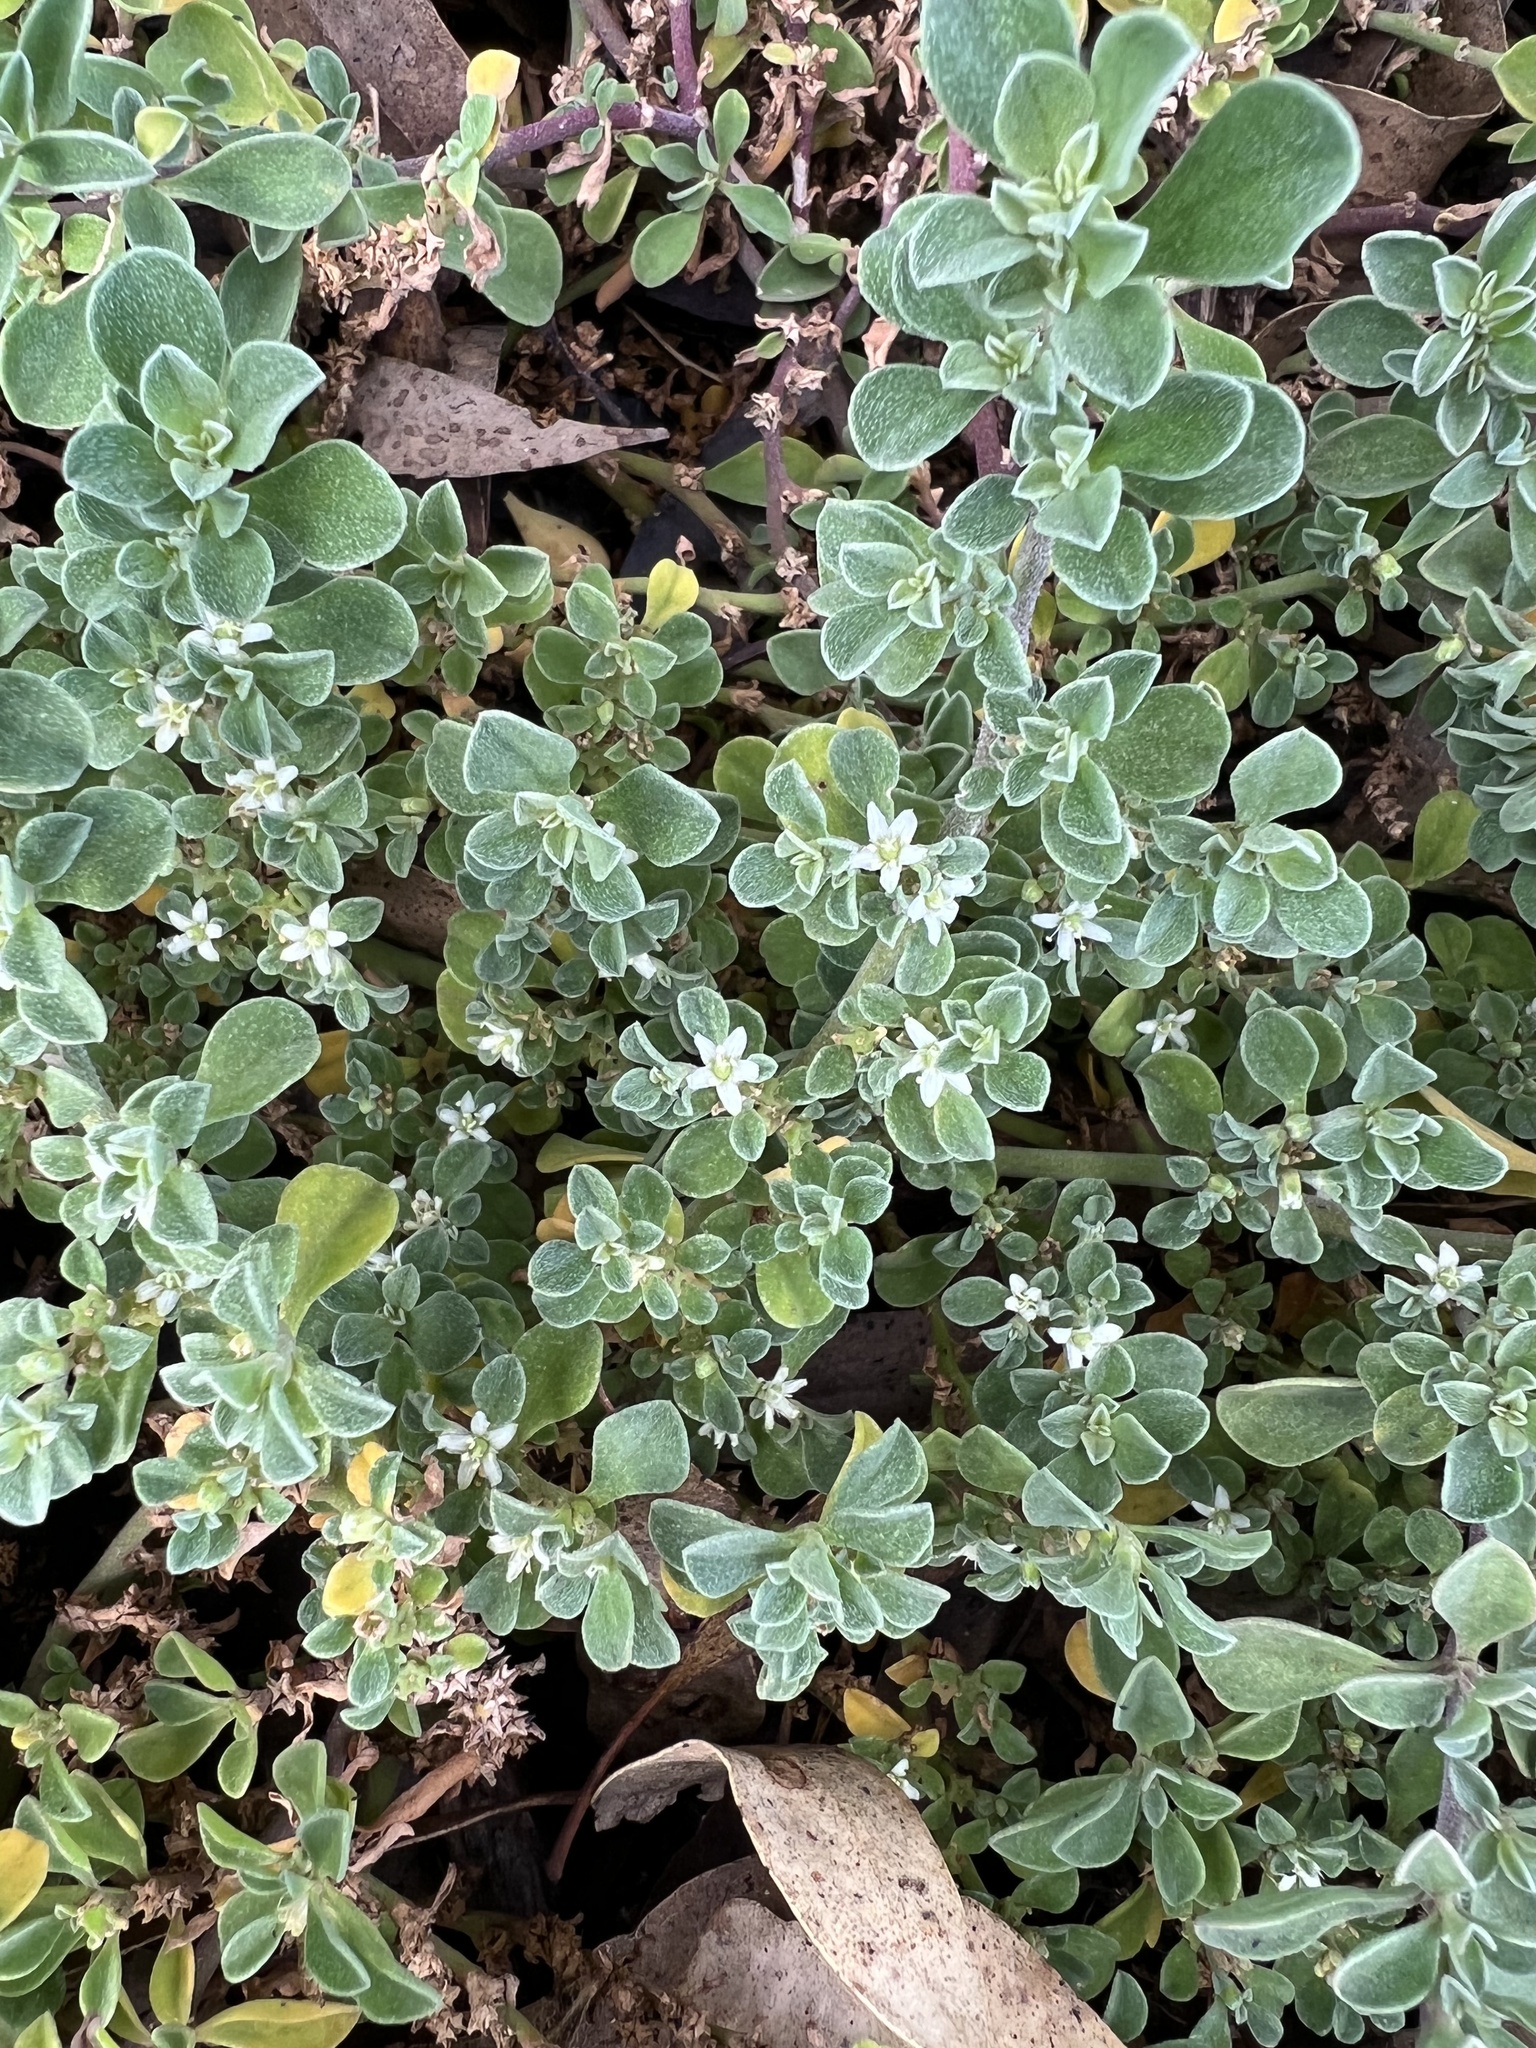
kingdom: Plantae
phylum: Tracheophyta
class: Magnoliopsida
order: Caryophyllales
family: Aizoaceae
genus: Aizoon
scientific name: Aizoon pubescens
